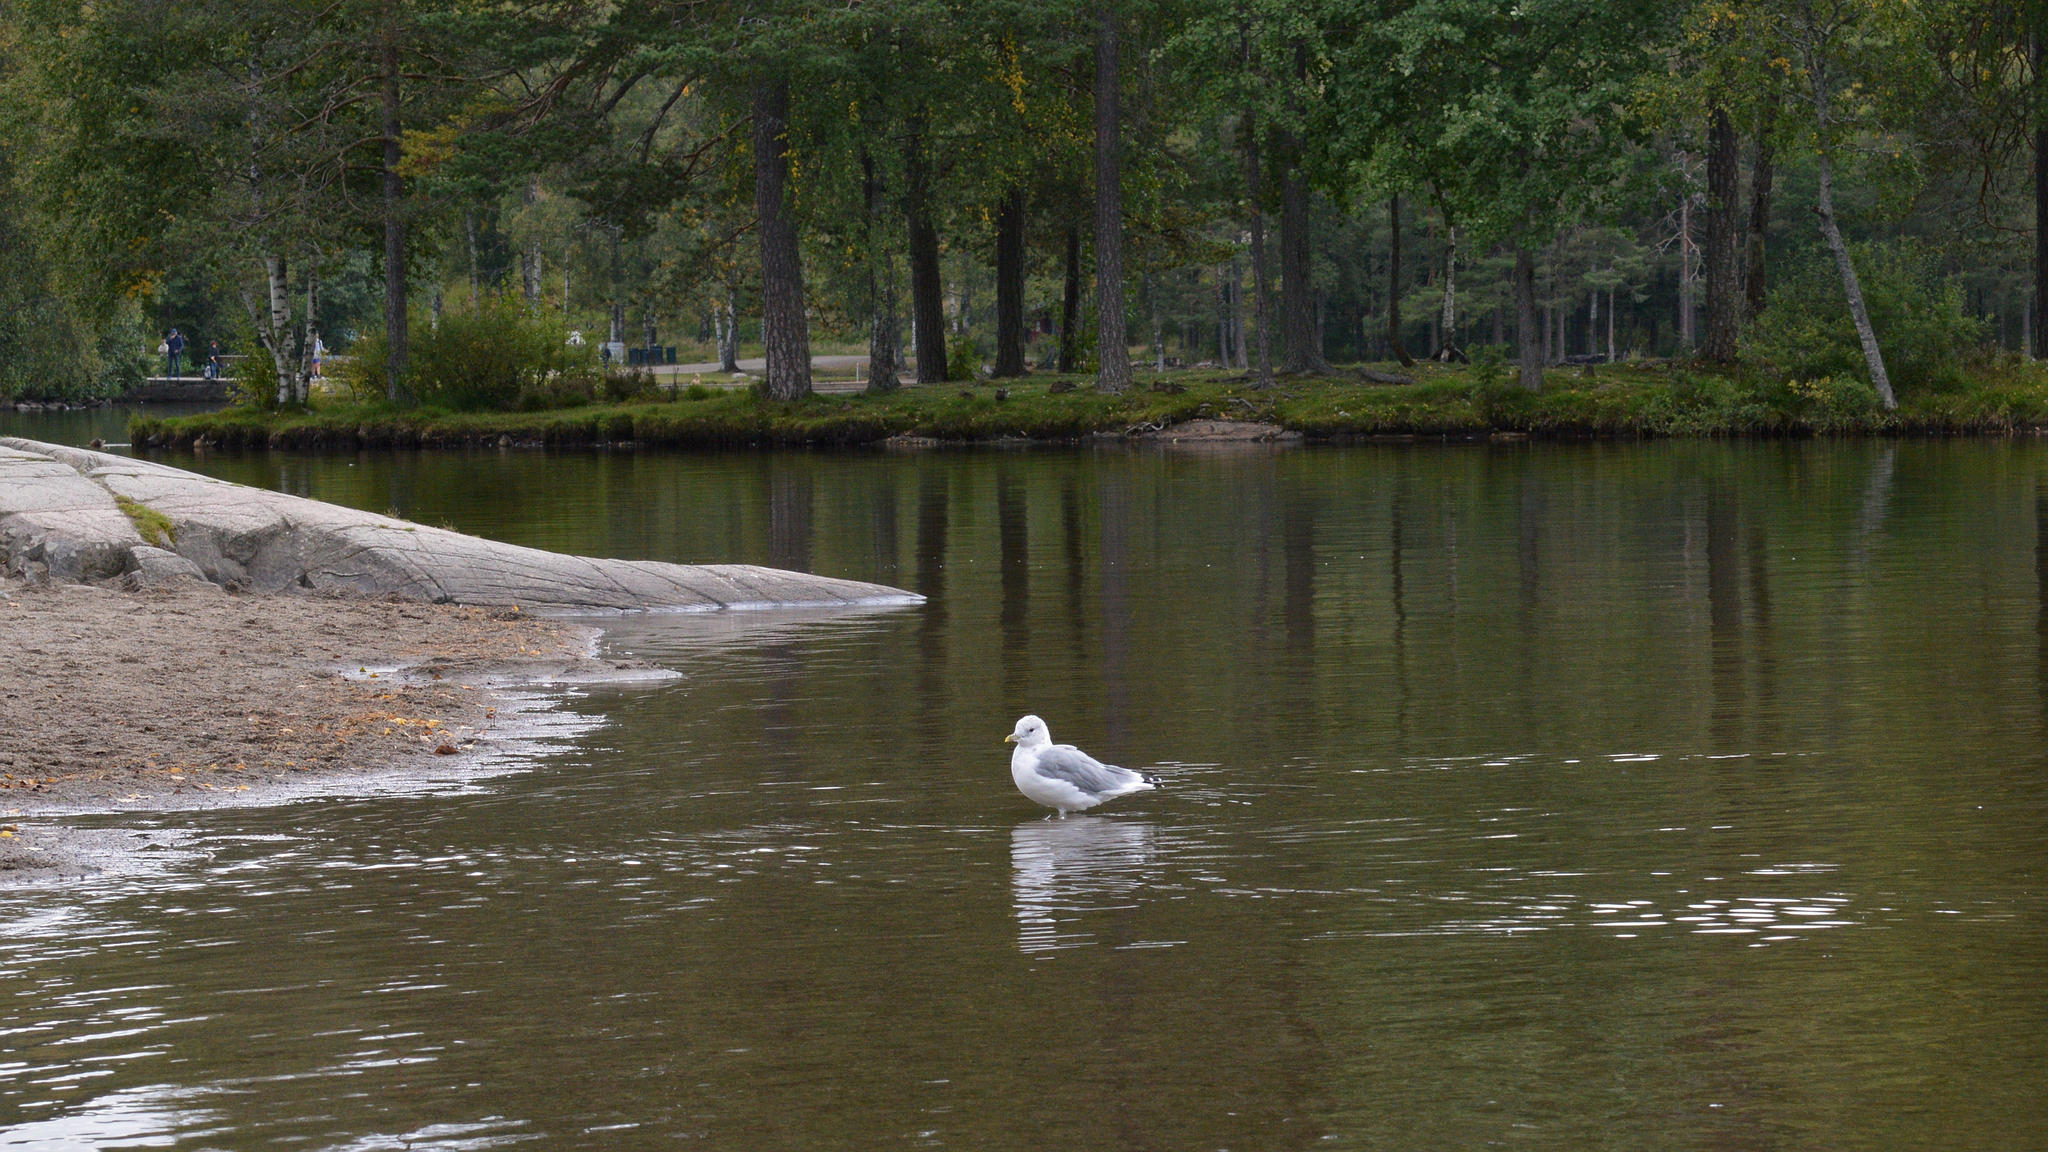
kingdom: Animalia
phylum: Chordata
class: Aves
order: Charadriiformes
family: Laridae
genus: Larus
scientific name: Larus canus
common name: Mew gull
